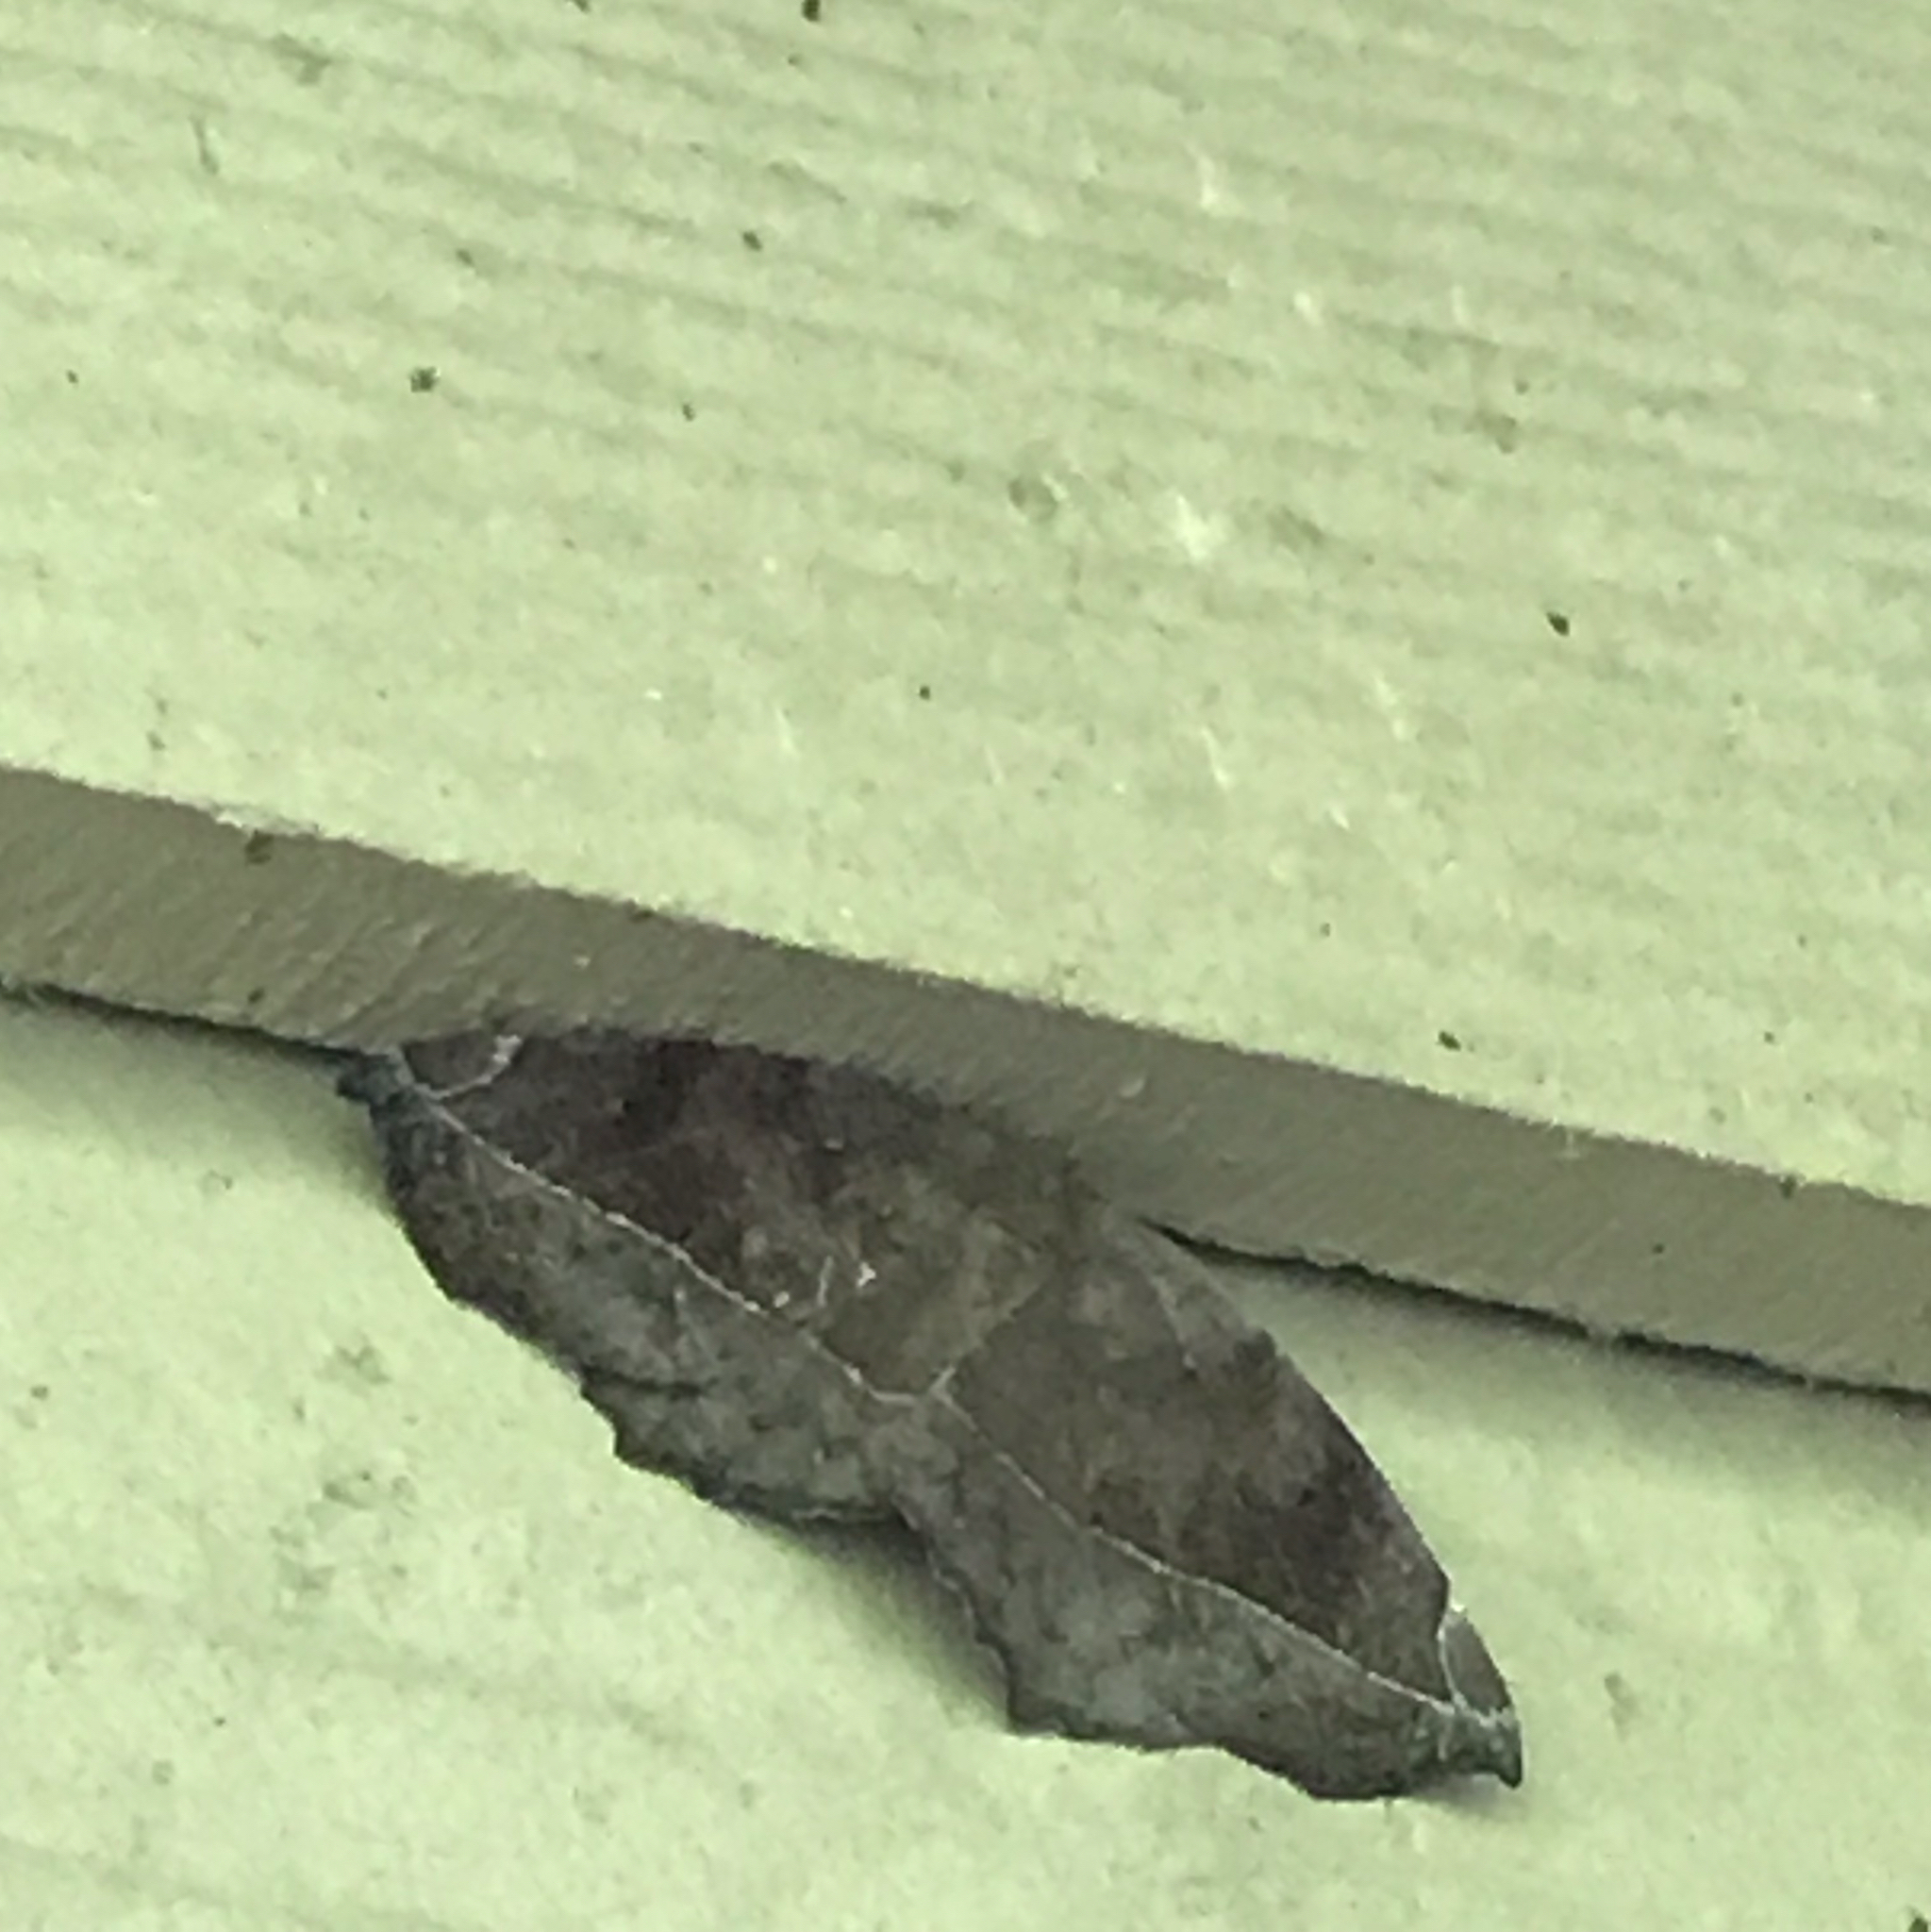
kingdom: Animalia
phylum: Arthropoda
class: Insecta
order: Lepidoptera
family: Geometridae
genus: Eutrapela
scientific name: Eutrapela clemataria
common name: Curved-toothed geometer
